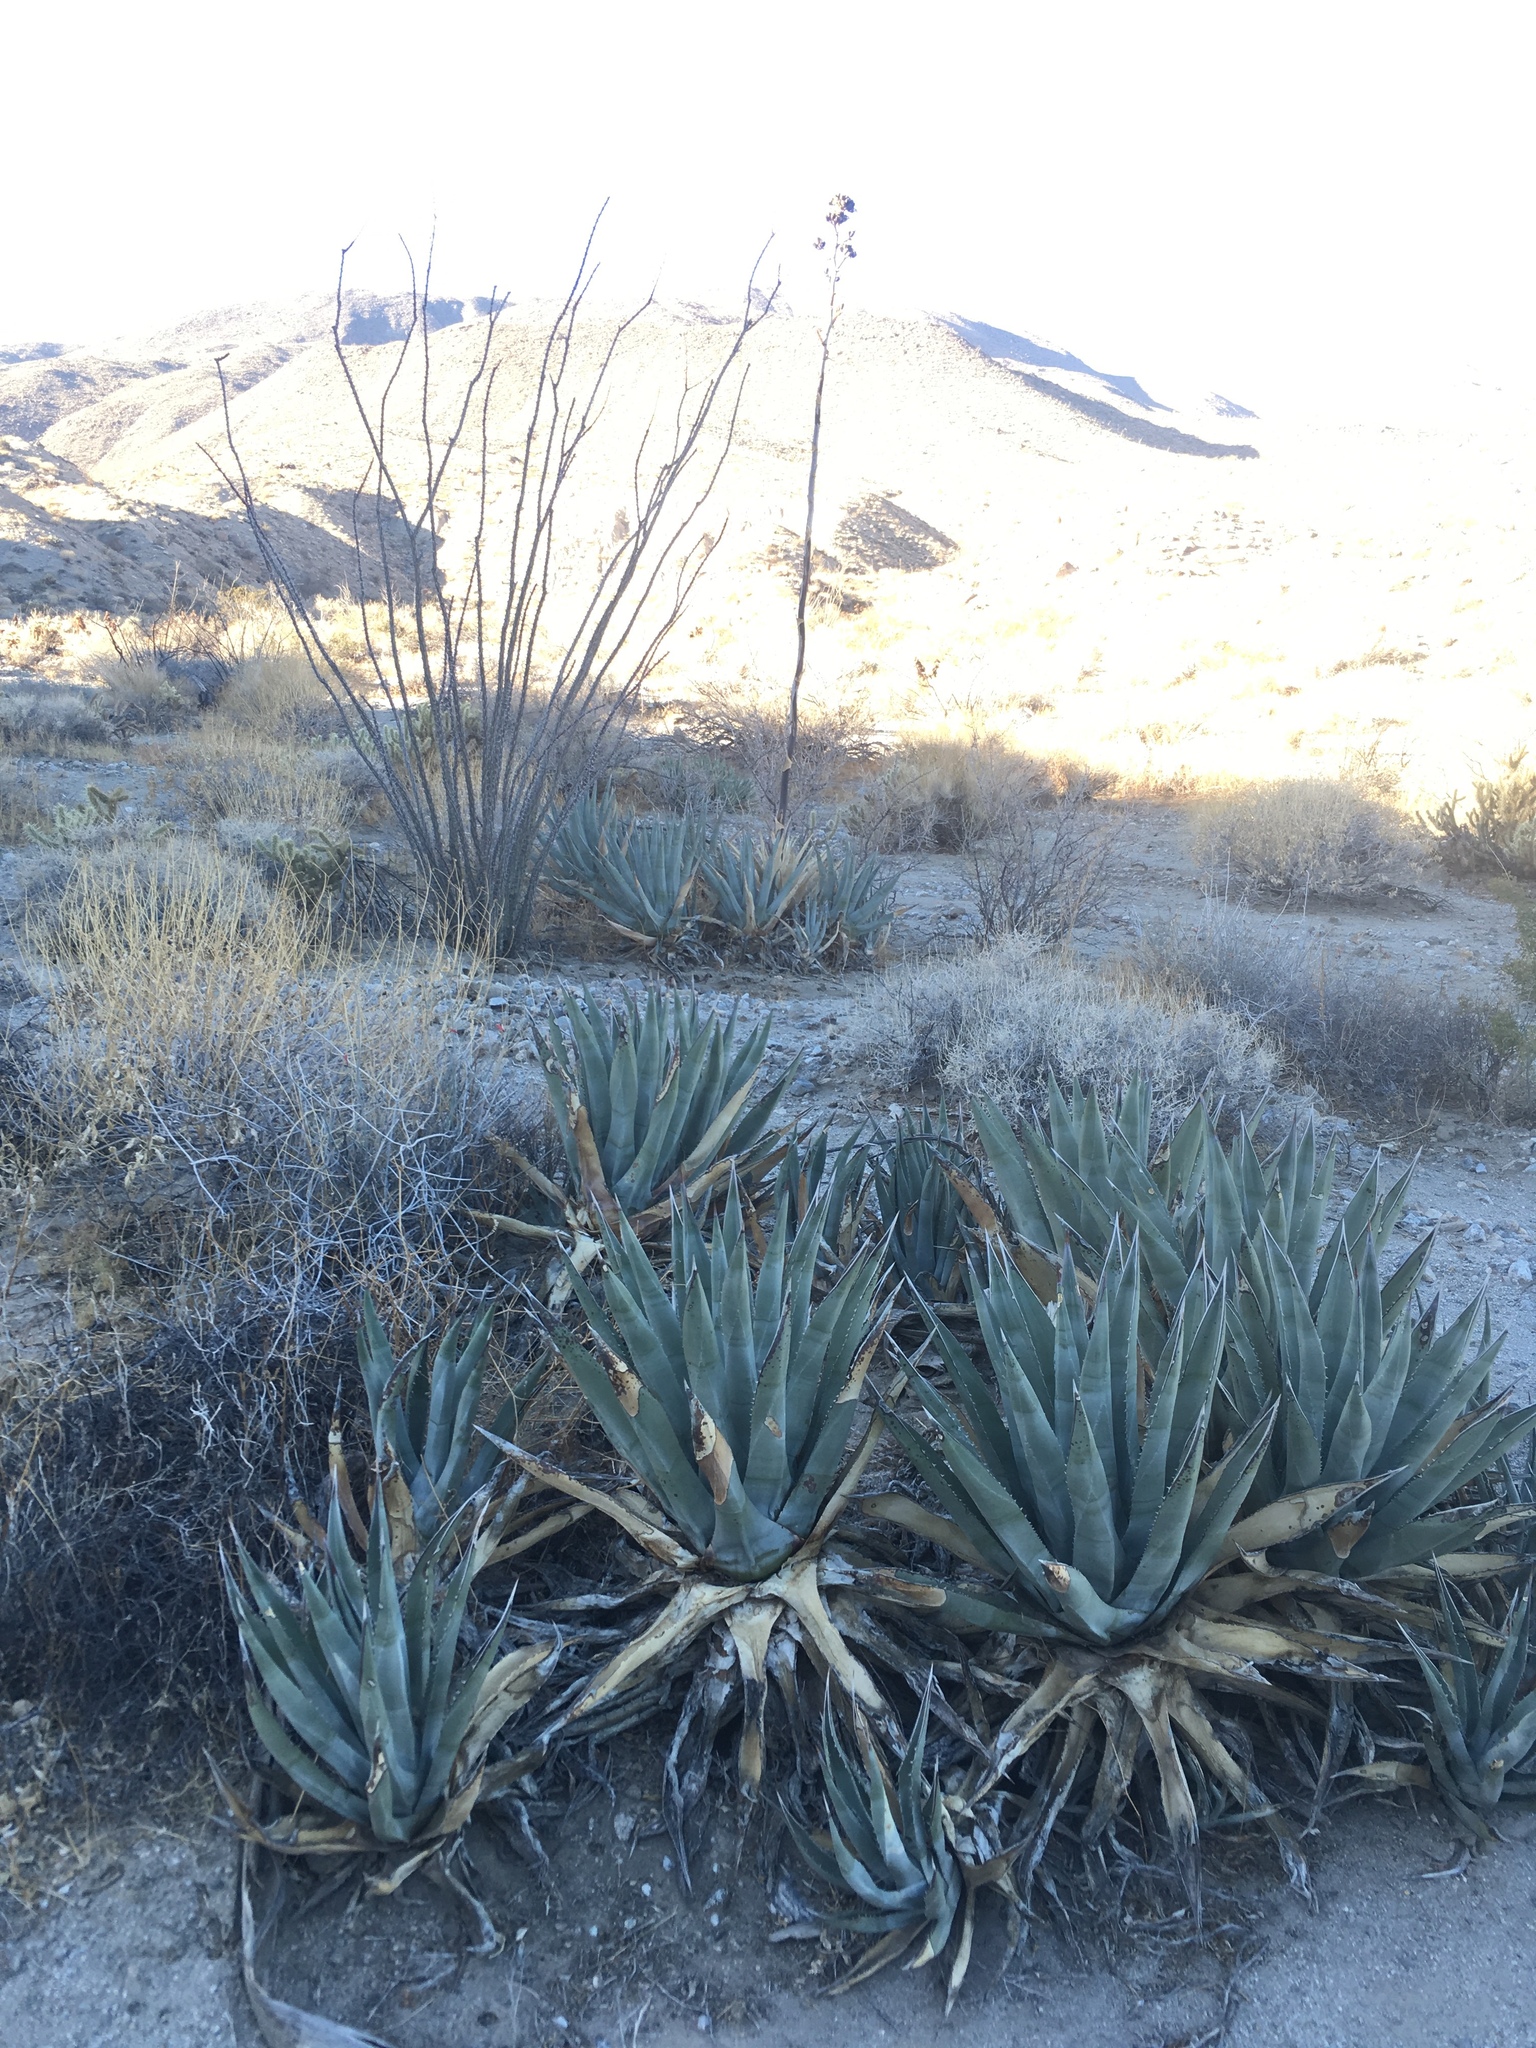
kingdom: Plantae
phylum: Tracheophyta
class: Liliopsida
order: Asparagales
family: Asparagaceae
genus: Agave
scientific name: Agave deserti
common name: Desert agave
